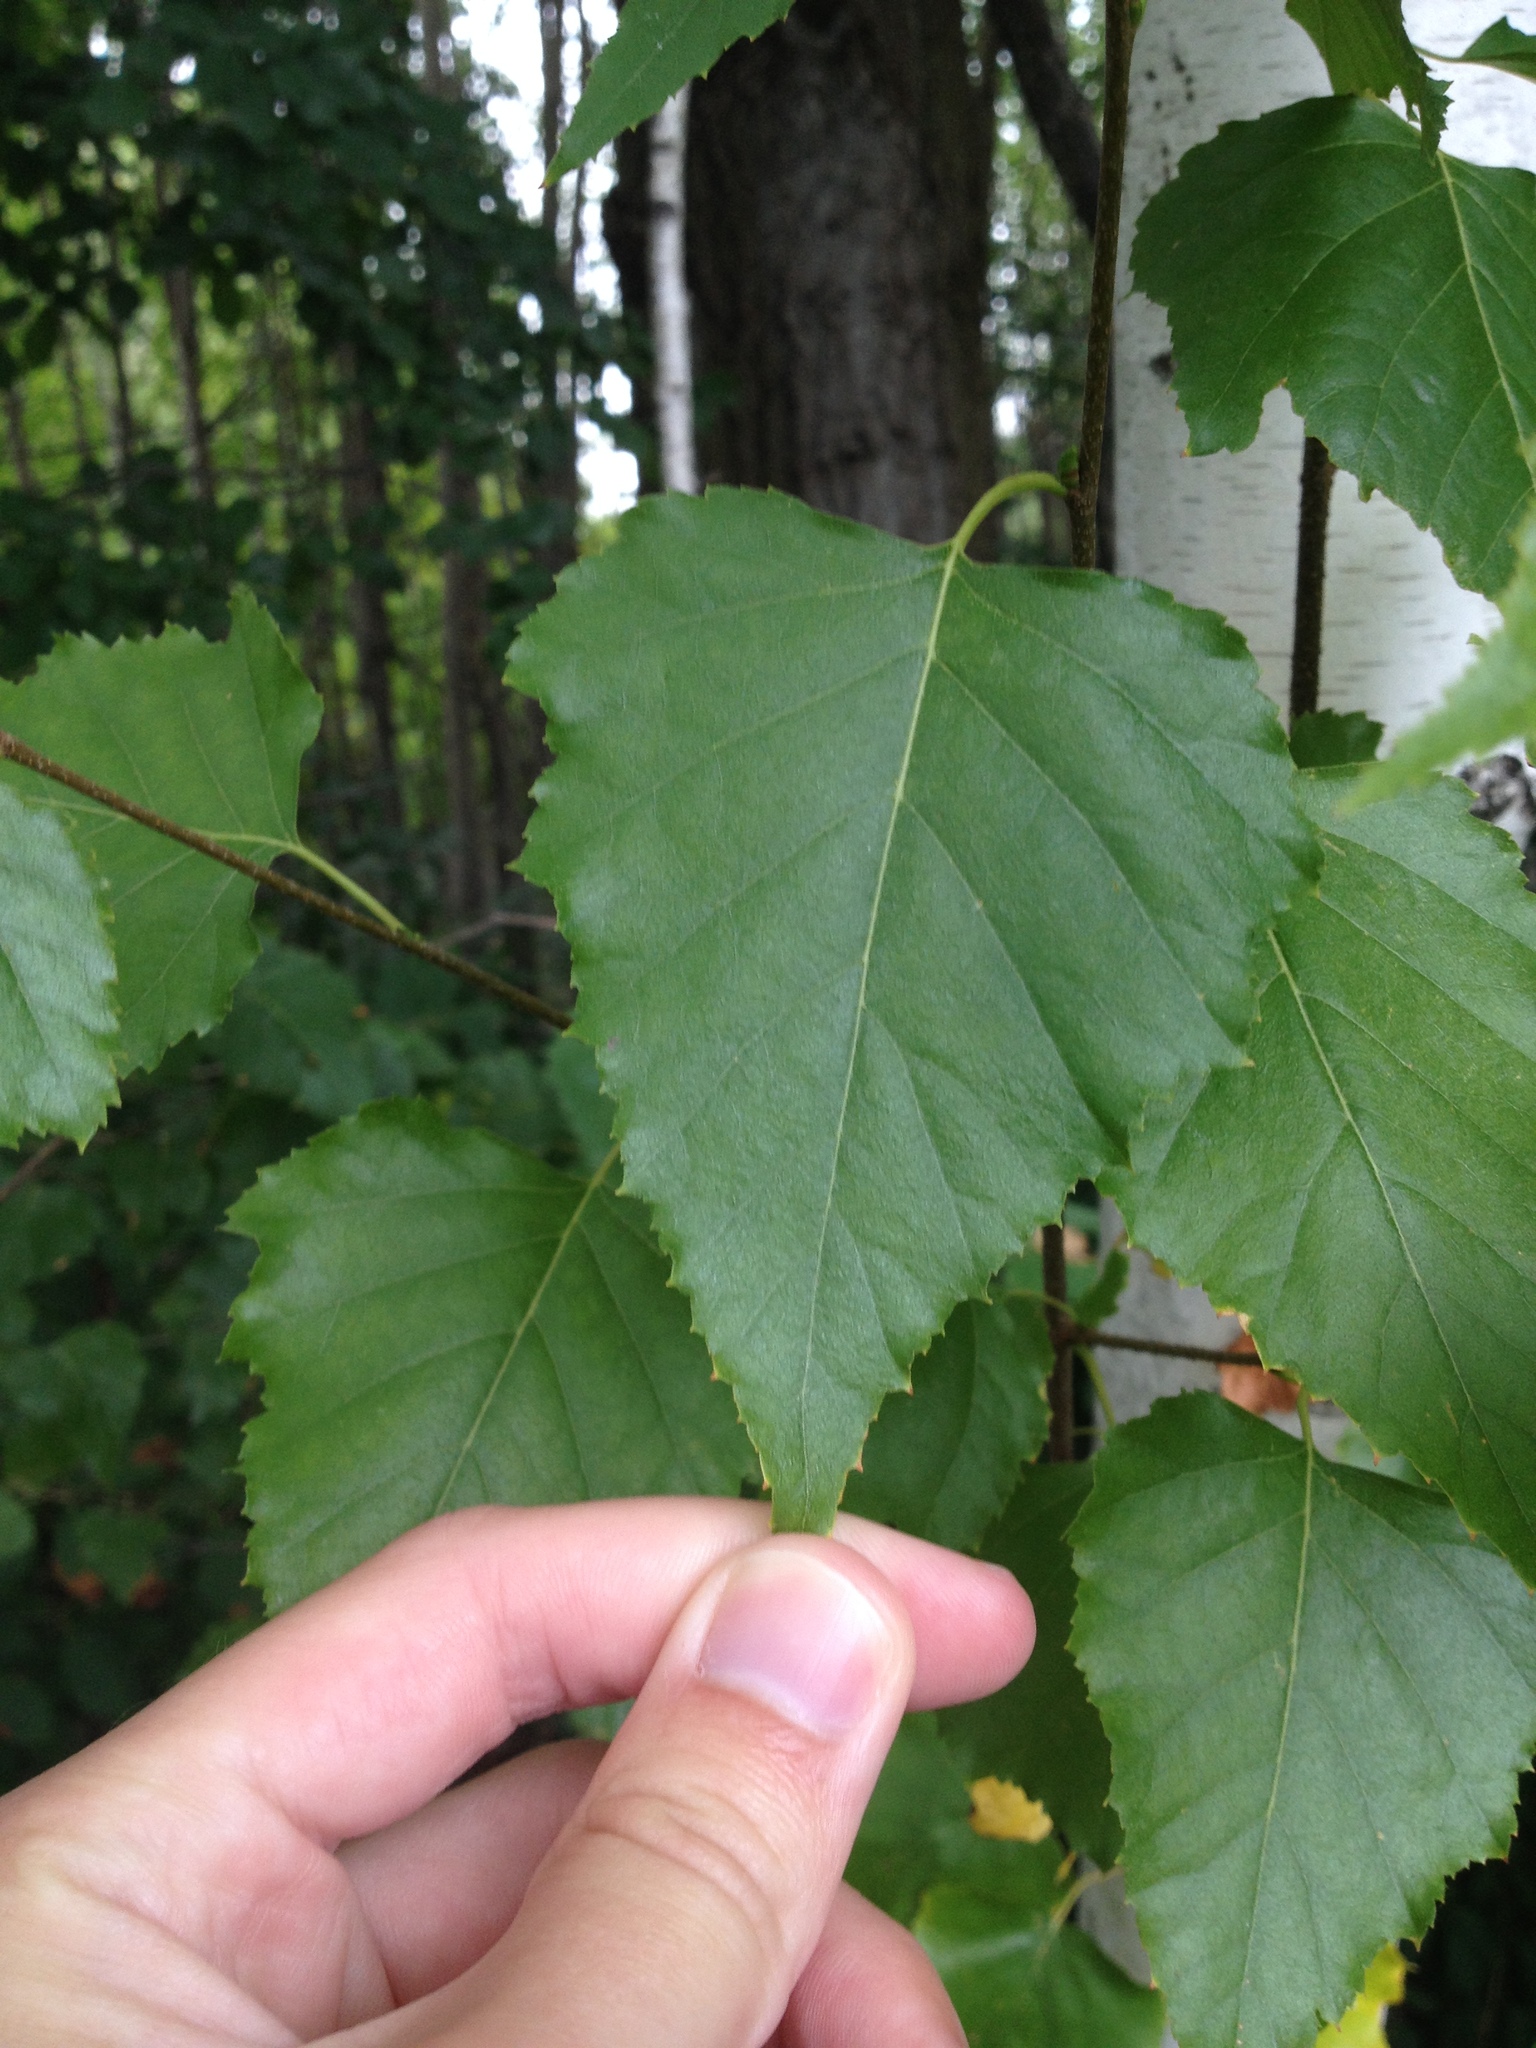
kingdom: Plantae
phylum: Tracheophyta
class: Magnoliopsida
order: Fagales
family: Betulaceae
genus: Betula
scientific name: Betula populifolia
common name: Fire birch
